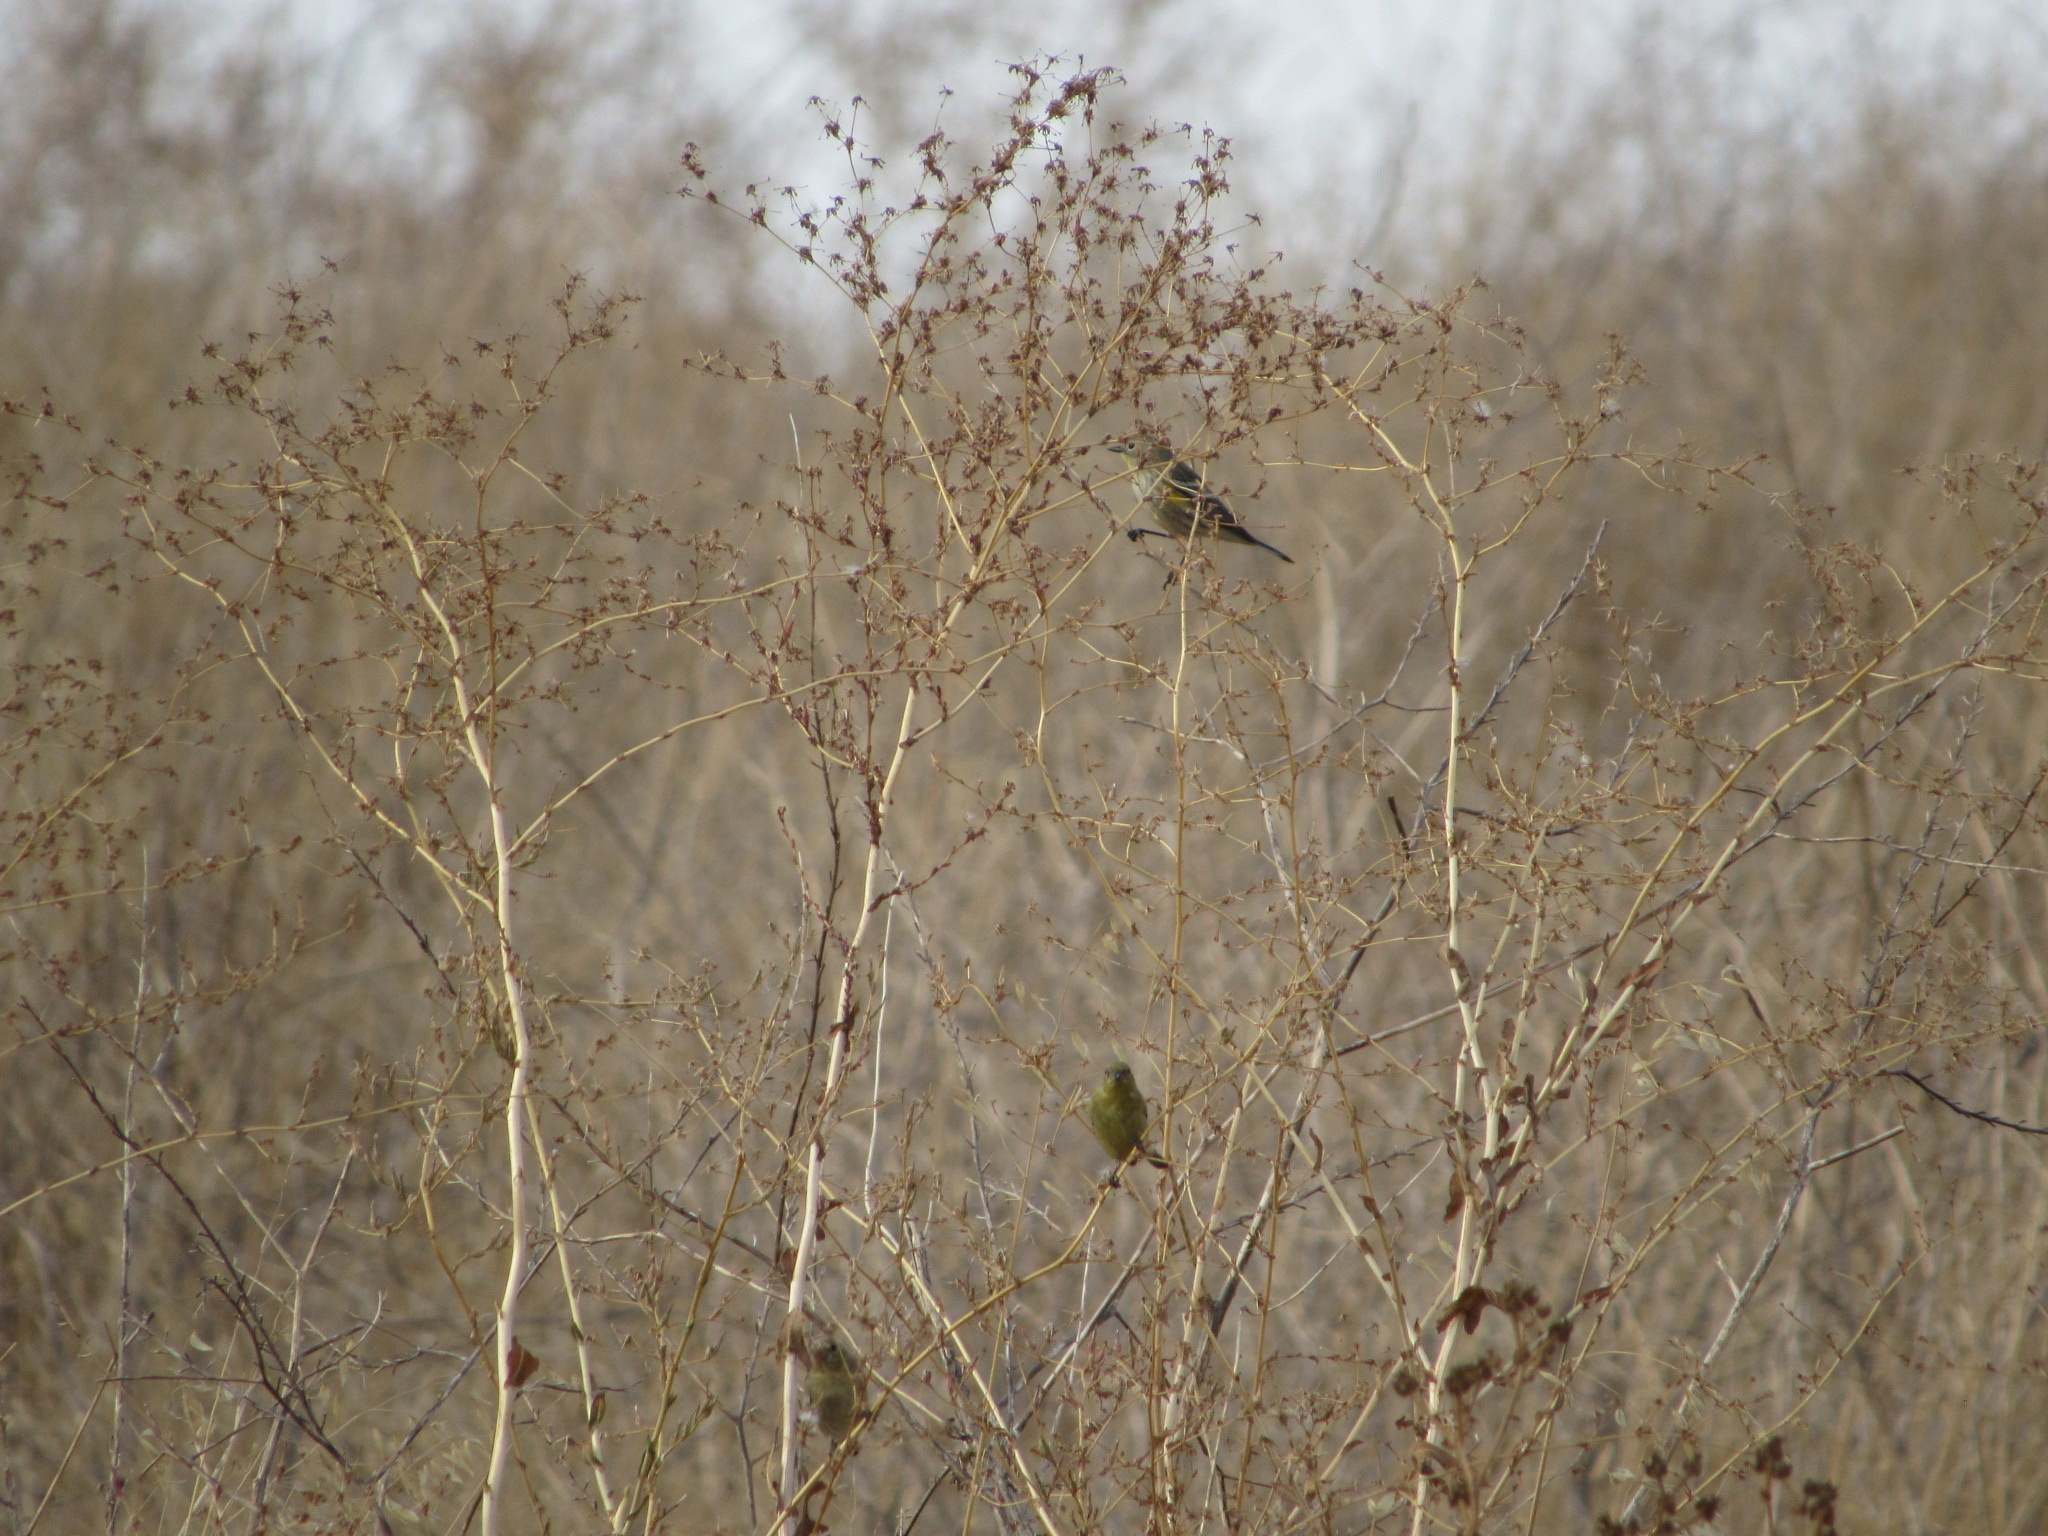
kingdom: Animalia
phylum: Chordata
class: Aves
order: Passeriformes
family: Parulidae
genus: Setophaga
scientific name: Setophaga coronata
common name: Myrtle warbler
